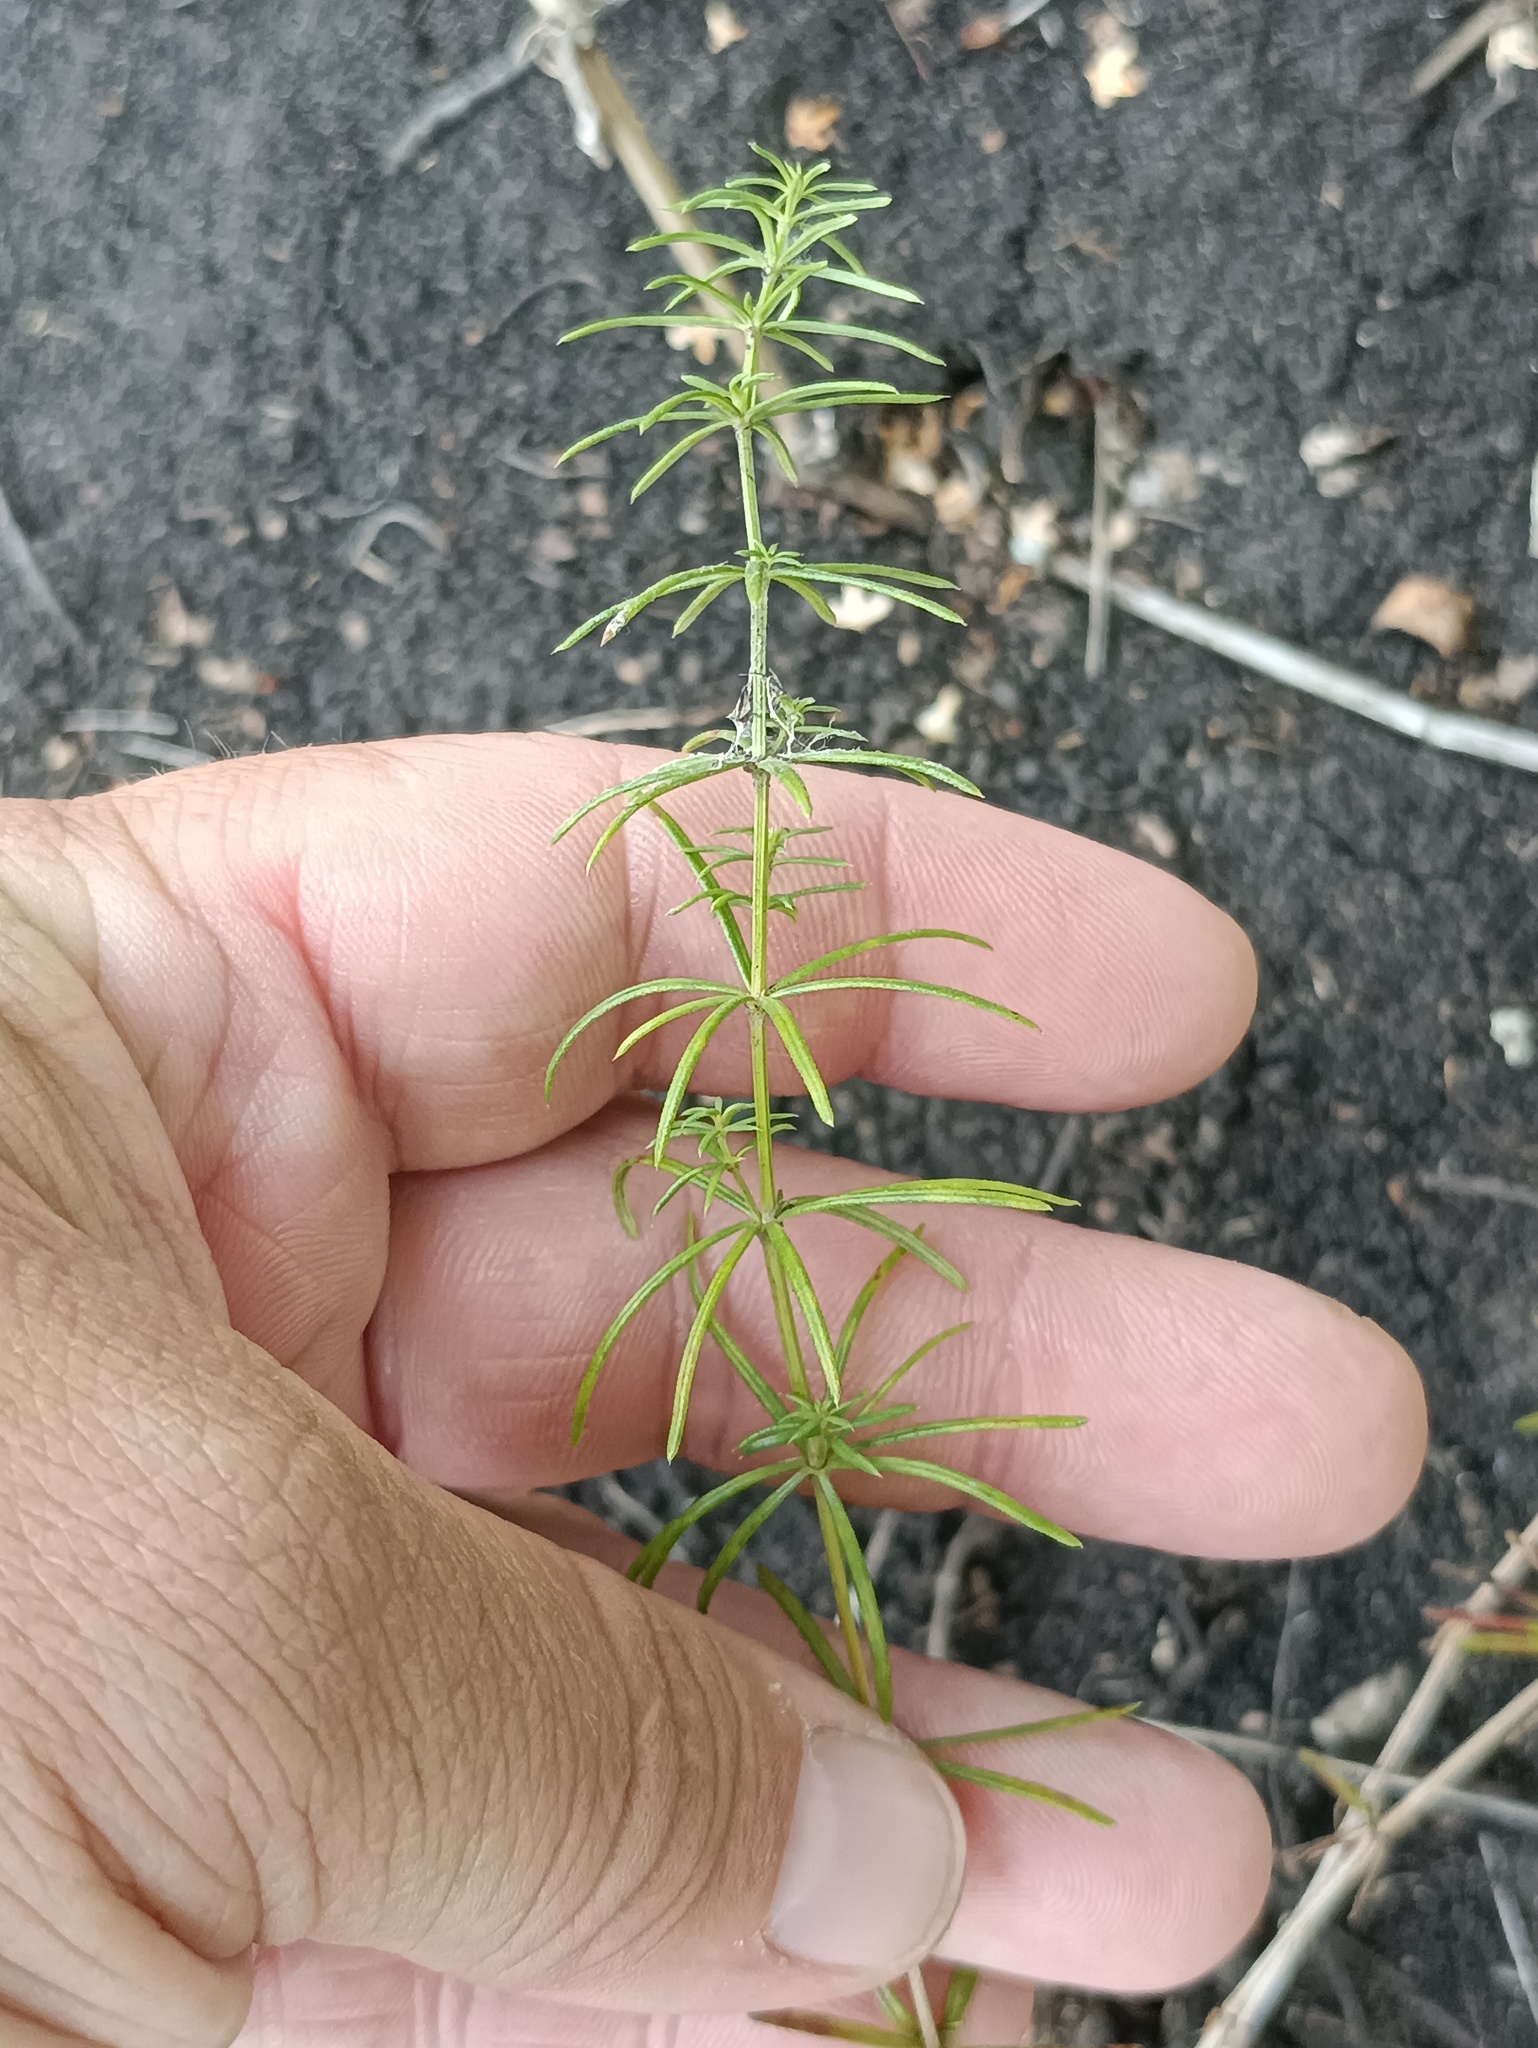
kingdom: Plantae
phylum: Tracheophyta
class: Magnoliopsida
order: Gentianales
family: Rubiaceae
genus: Galium
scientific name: Galium verum
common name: Lady's bedstraw
